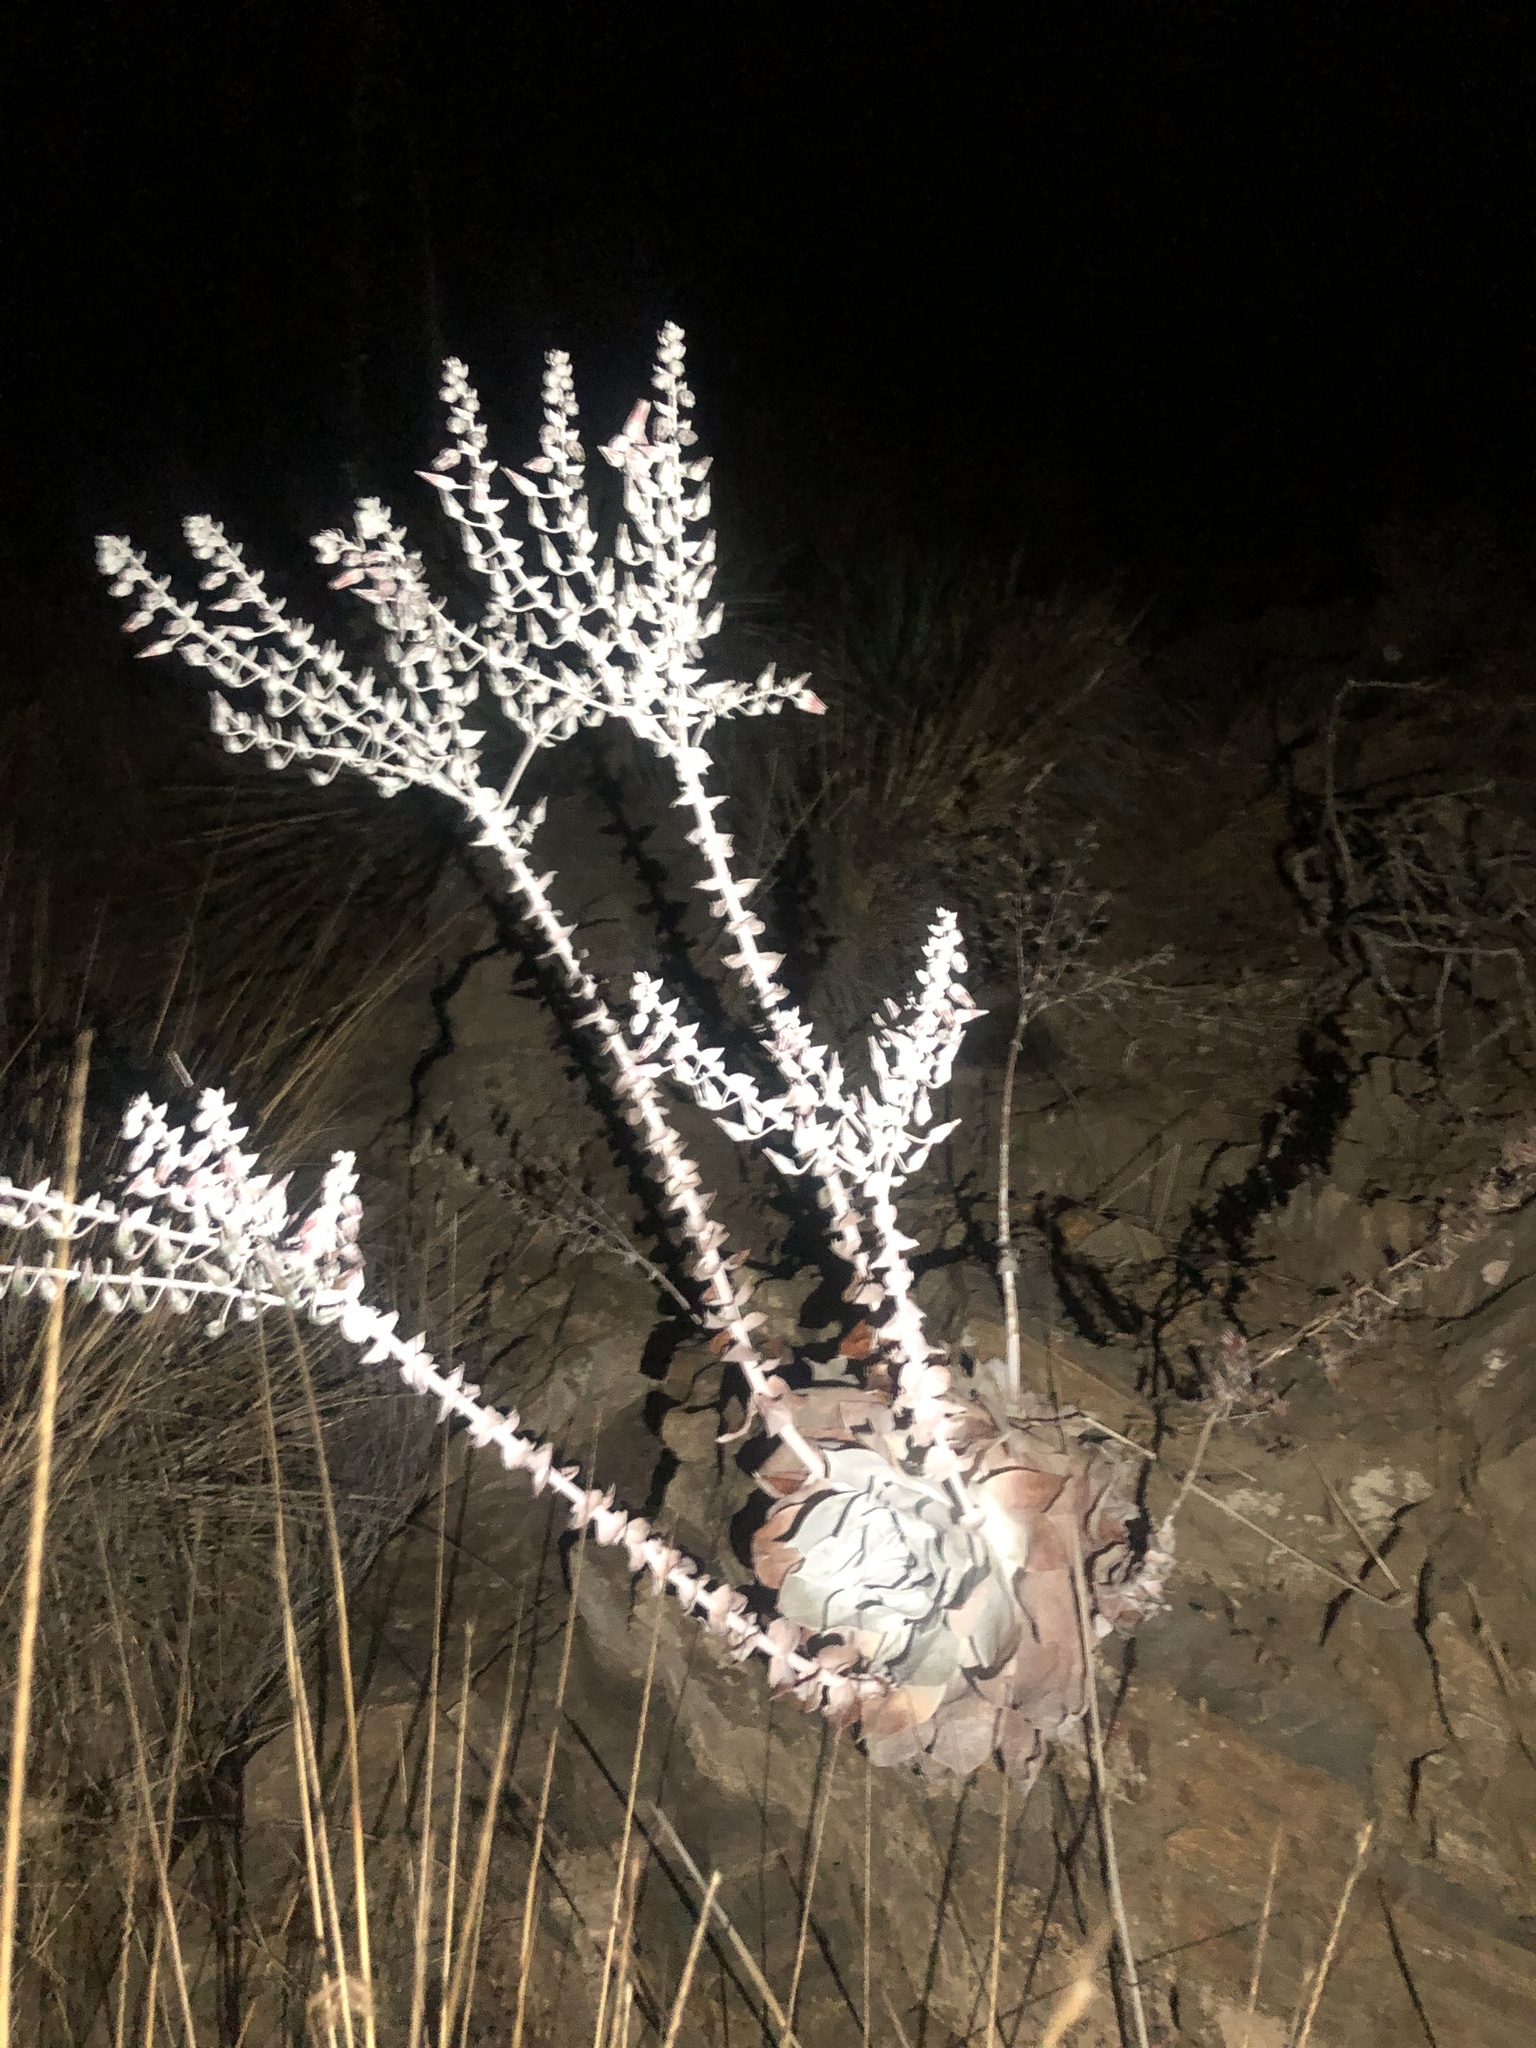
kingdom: Plantae
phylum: Tracheophyta
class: Magnoliopsida
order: Saxifragales
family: Crassulaceae
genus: Dudleya
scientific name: Dudleya pulverulenta
